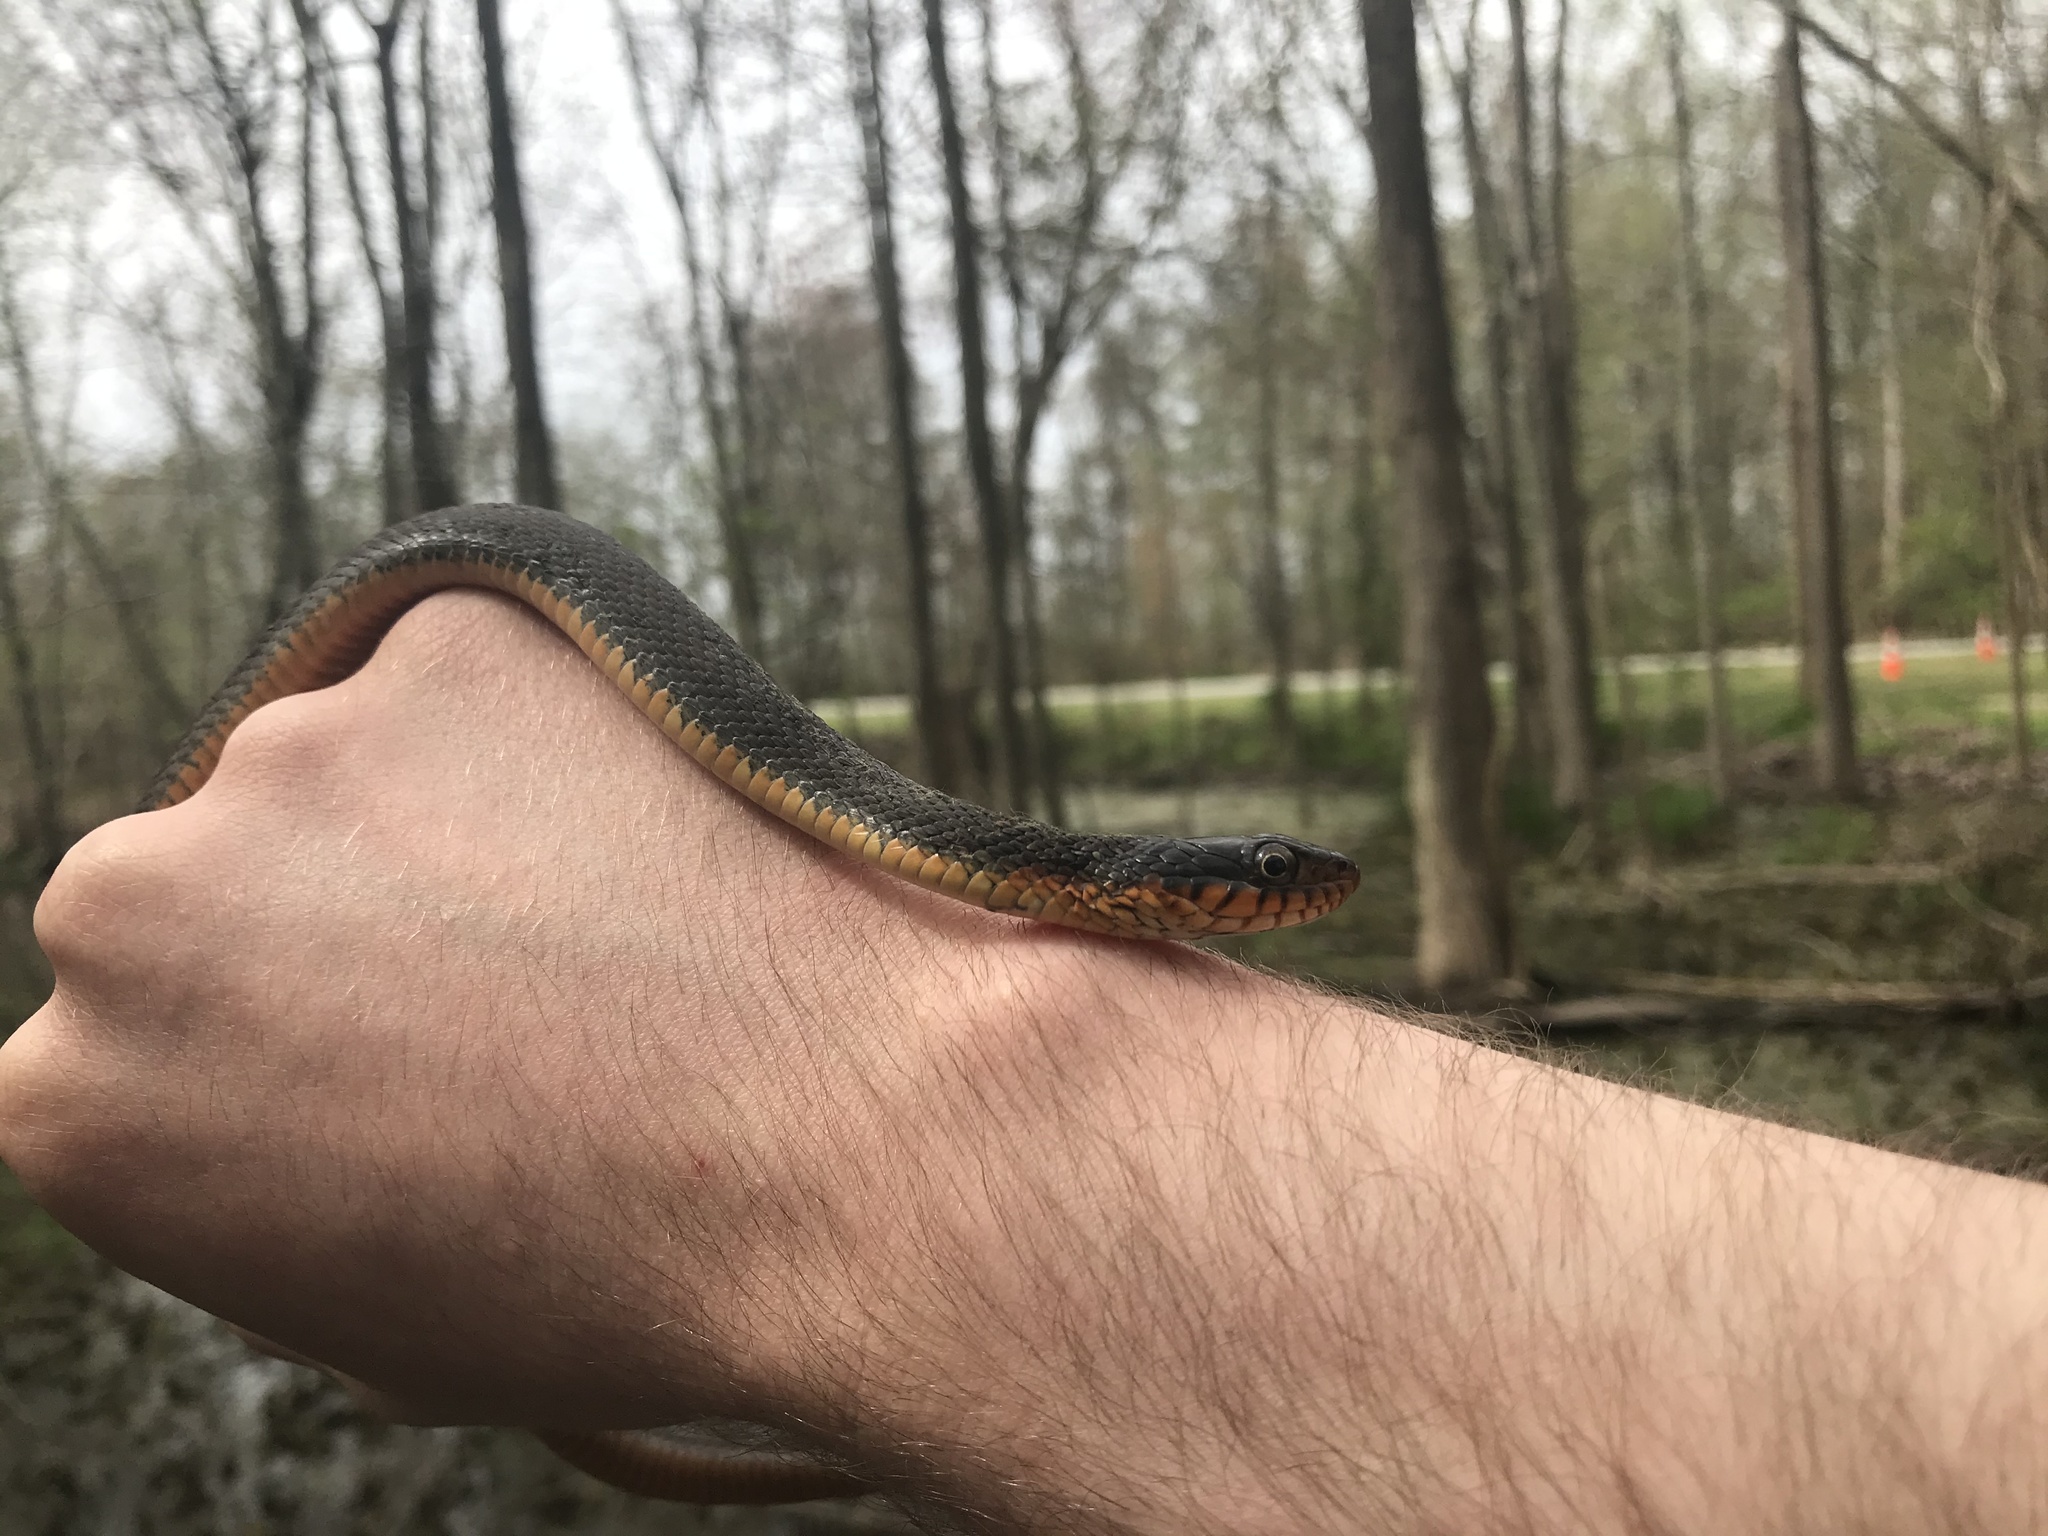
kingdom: Animalia
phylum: Chordata
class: Squamata
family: Colubridae
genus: Nerodia
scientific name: Nerodia erythrogaster
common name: Plainbelly water snake
